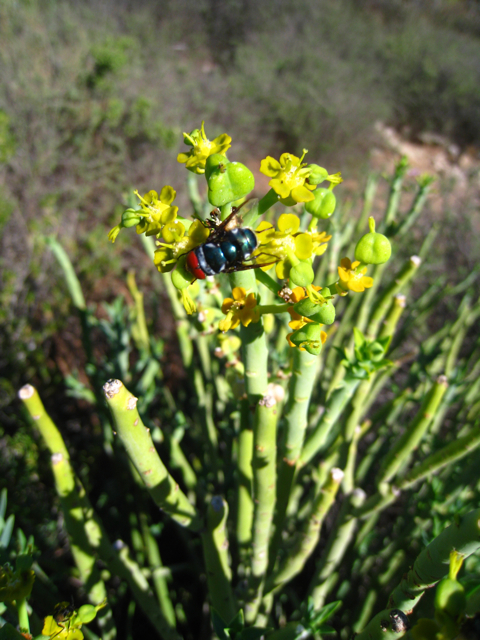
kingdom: Plantae
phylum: Tracheophyta
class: Magnoliopsida
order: Malpighiales
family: Euphorbiaceae
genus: Euphorbia
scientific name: Euphorbia mauritanica
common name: Jackal's-food
